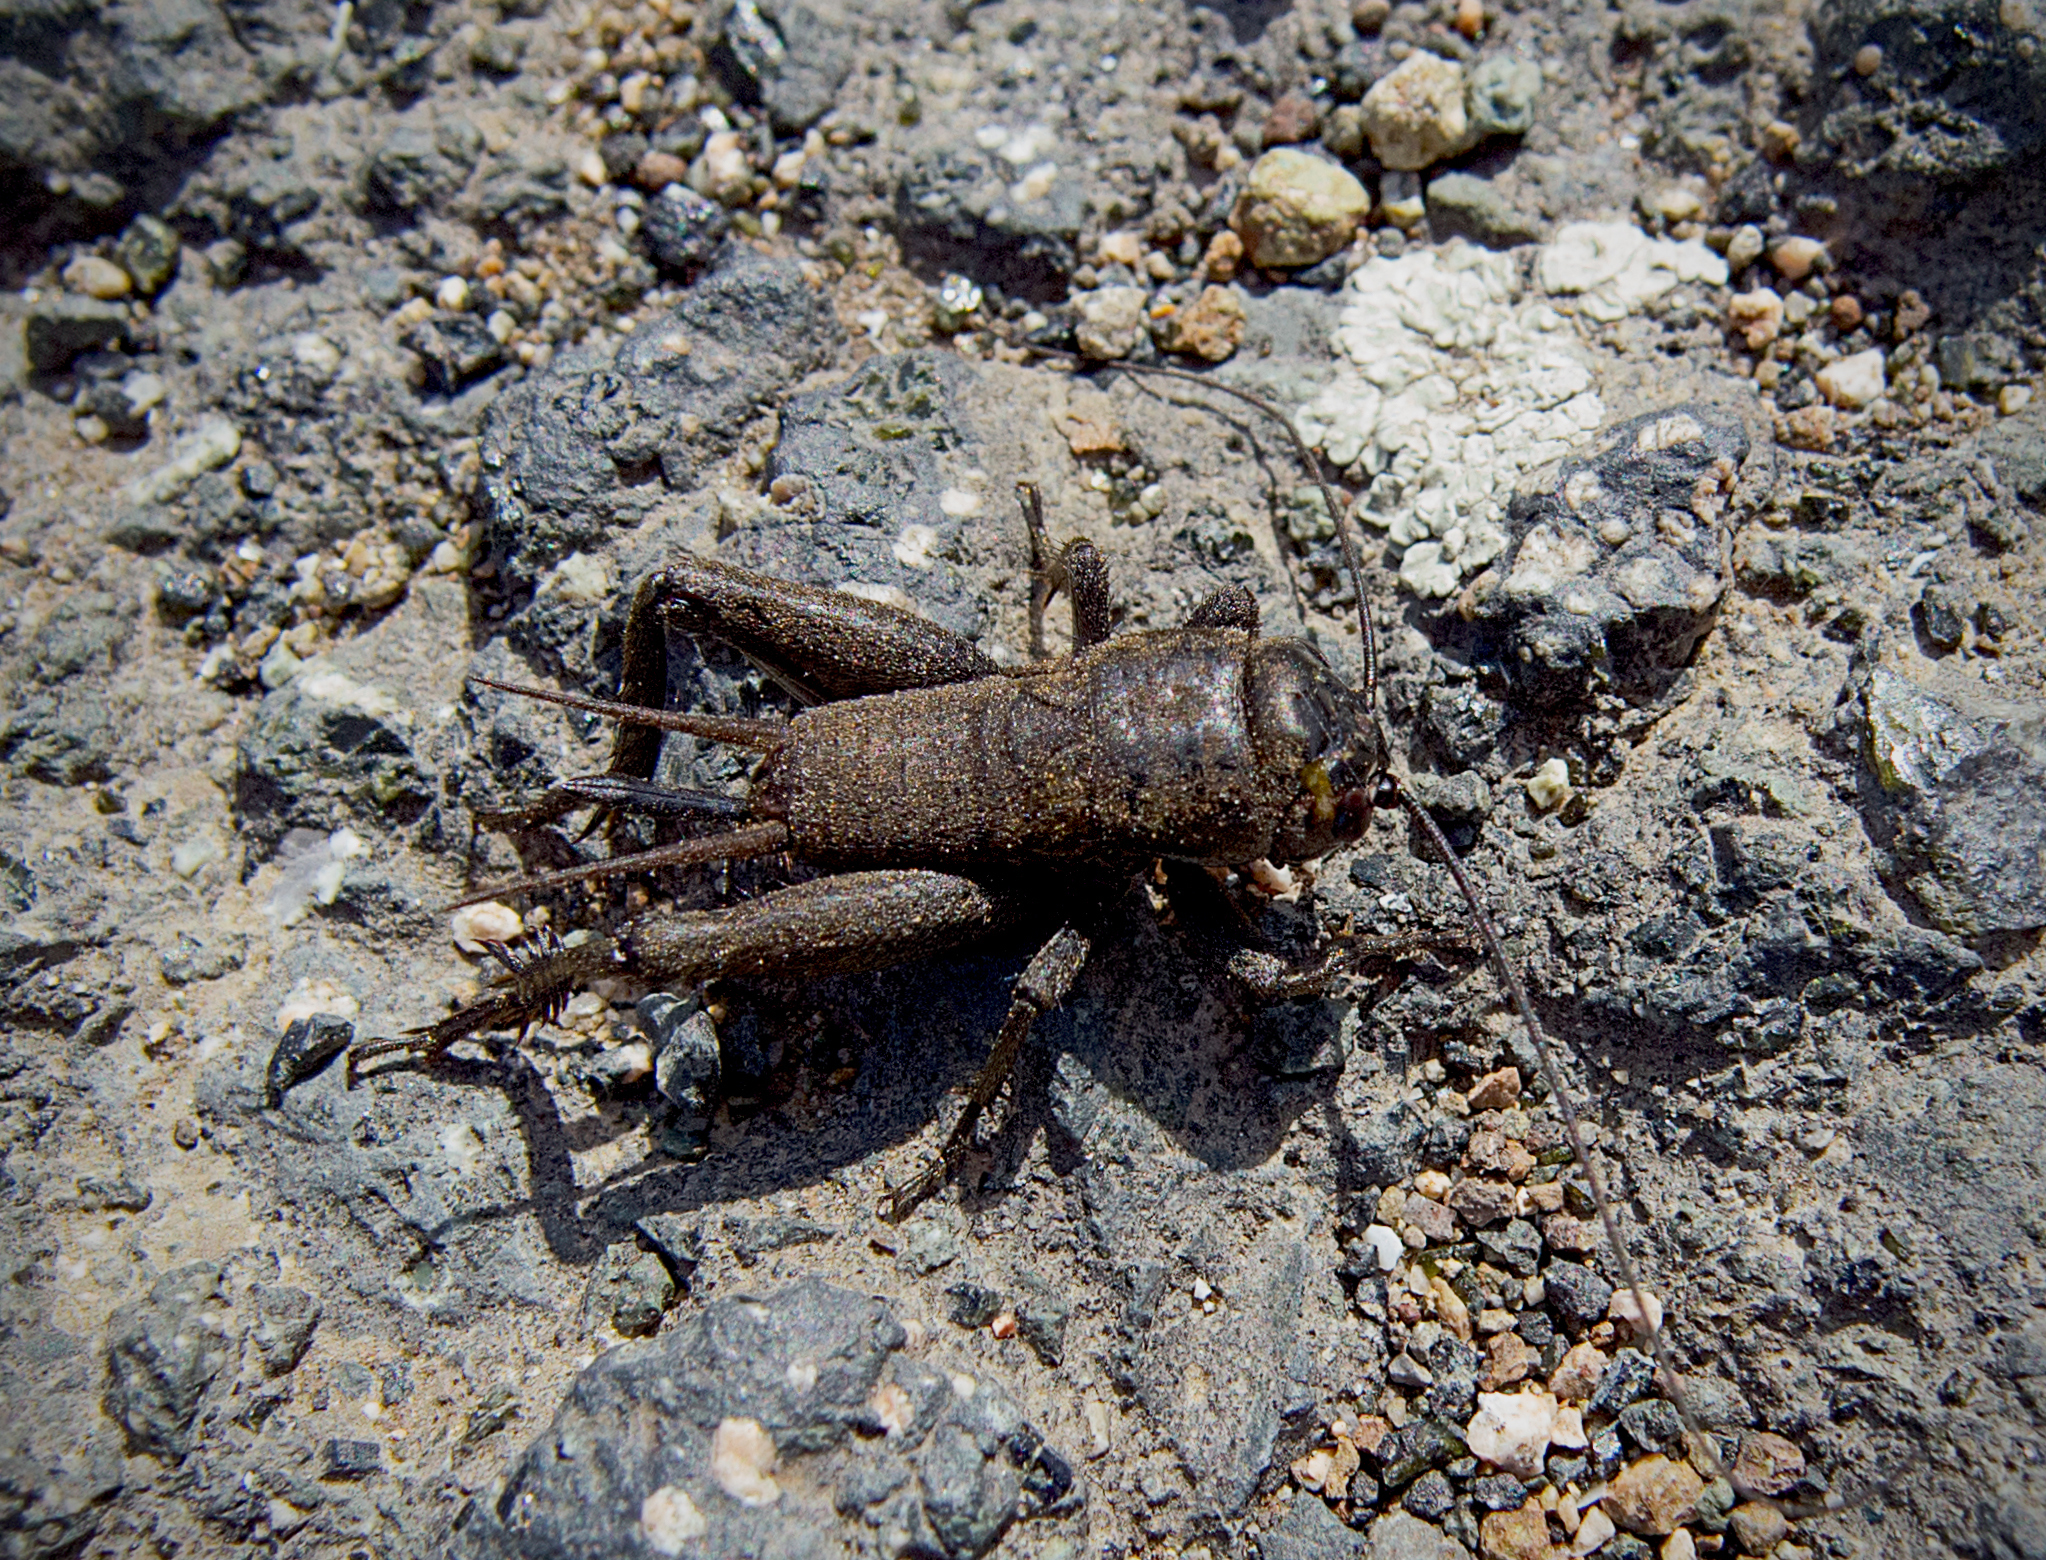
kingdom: Animalia
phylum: Arthropoda
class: Insecta
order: Orthoptera
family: Gryllidae
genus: Gryllus
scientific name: Gryllus campestris
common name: Field cricket
